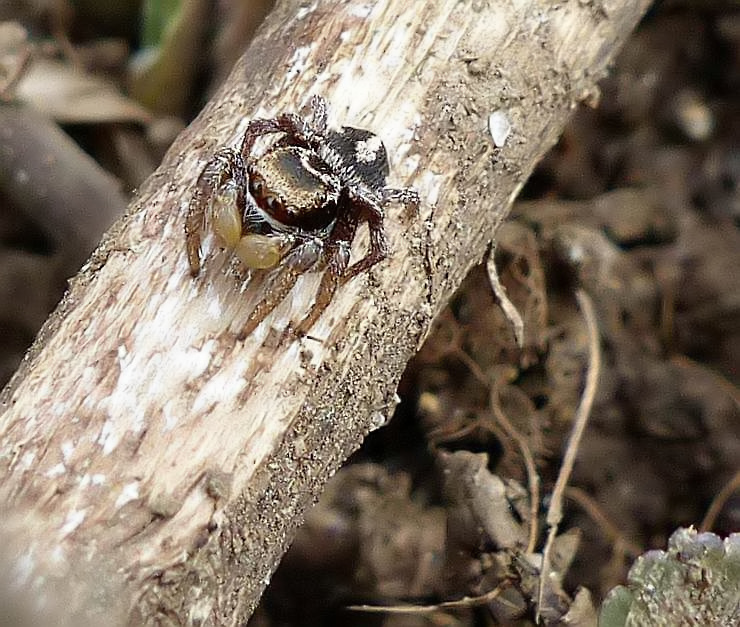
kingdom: Animalia
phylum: Arthropoda
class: Arachnida
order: Araneae
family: Salticidae
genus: Habronattus
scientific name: Habronattus viridipes
